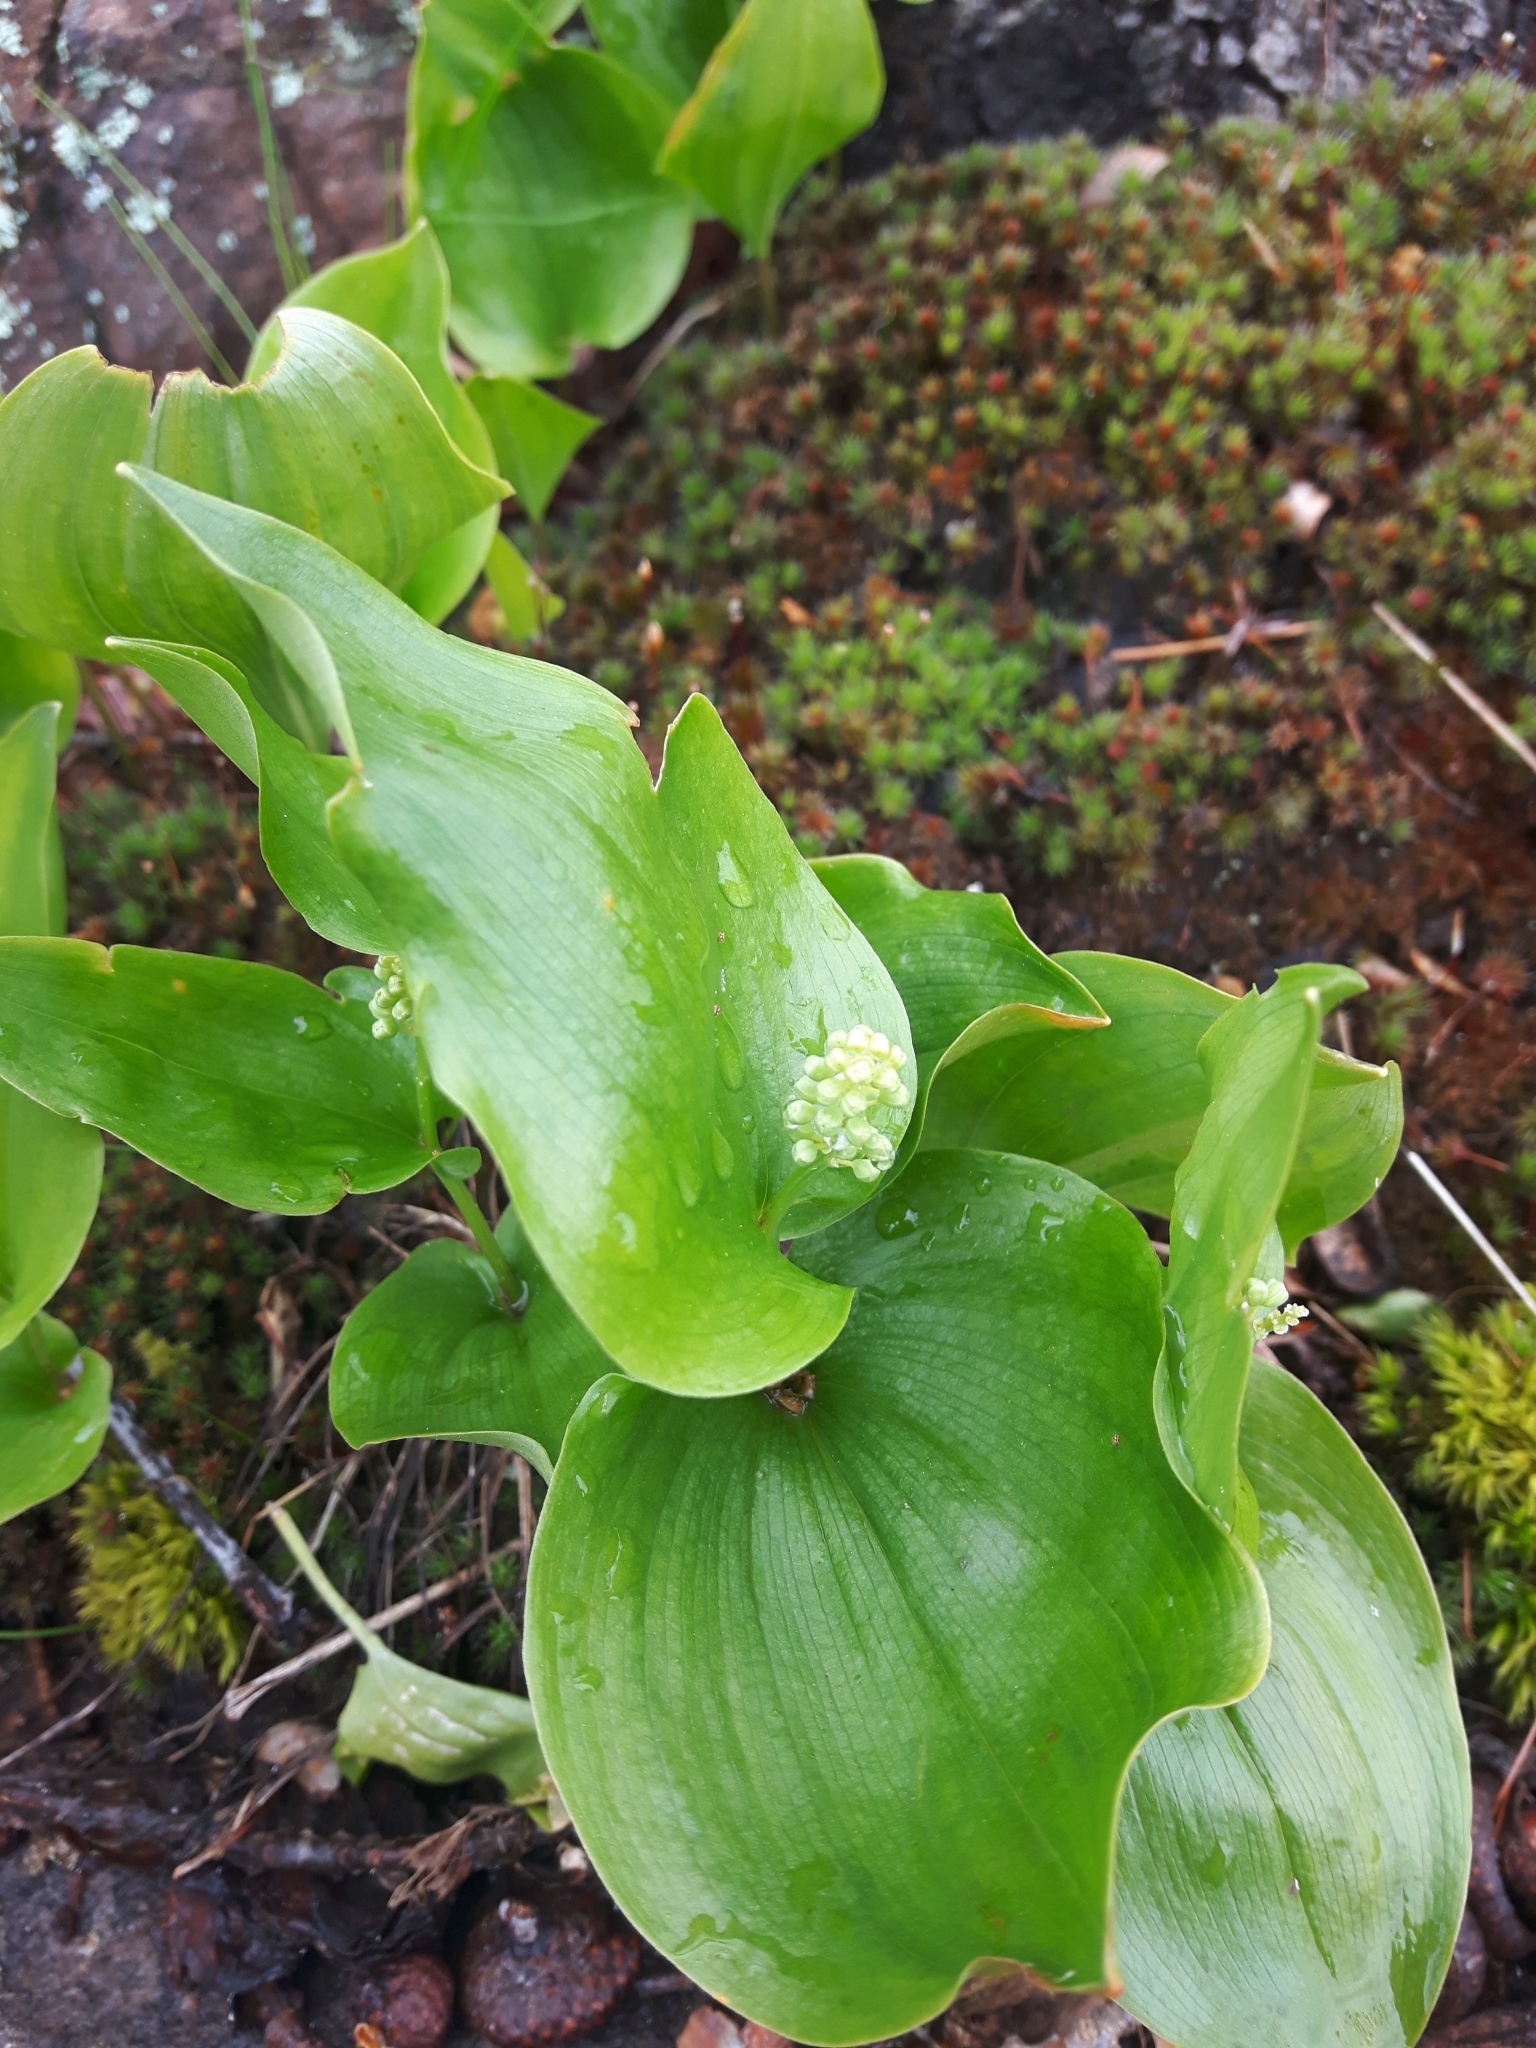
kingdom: Plantae
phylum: Tracheophyta
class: Liliopsida
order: Asparagales
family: Asparagaceae
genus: Maianthemum
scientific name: Maianthemum canadense
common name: False lily-of-the-valley
